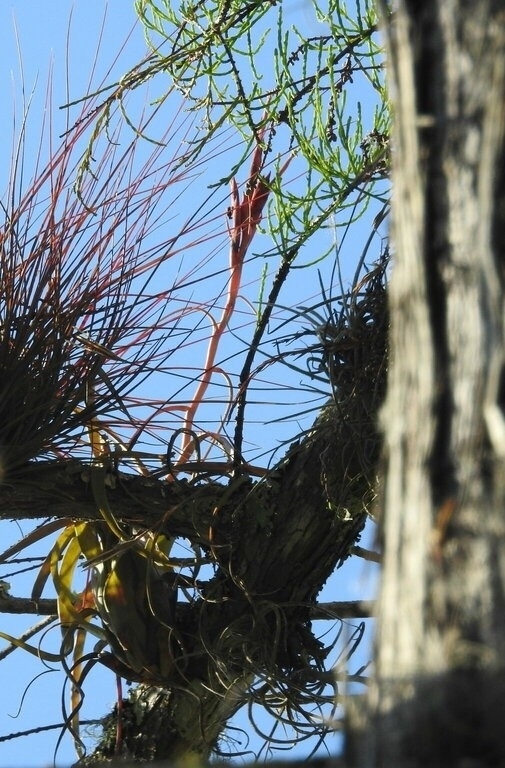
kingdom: Plantae
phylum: Tracheophyta
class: Liliopsida
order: Poales
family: Bromeliaceae
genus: Tillandsia
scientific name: Tillandsia balbisiana
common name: Northern needleleaf
